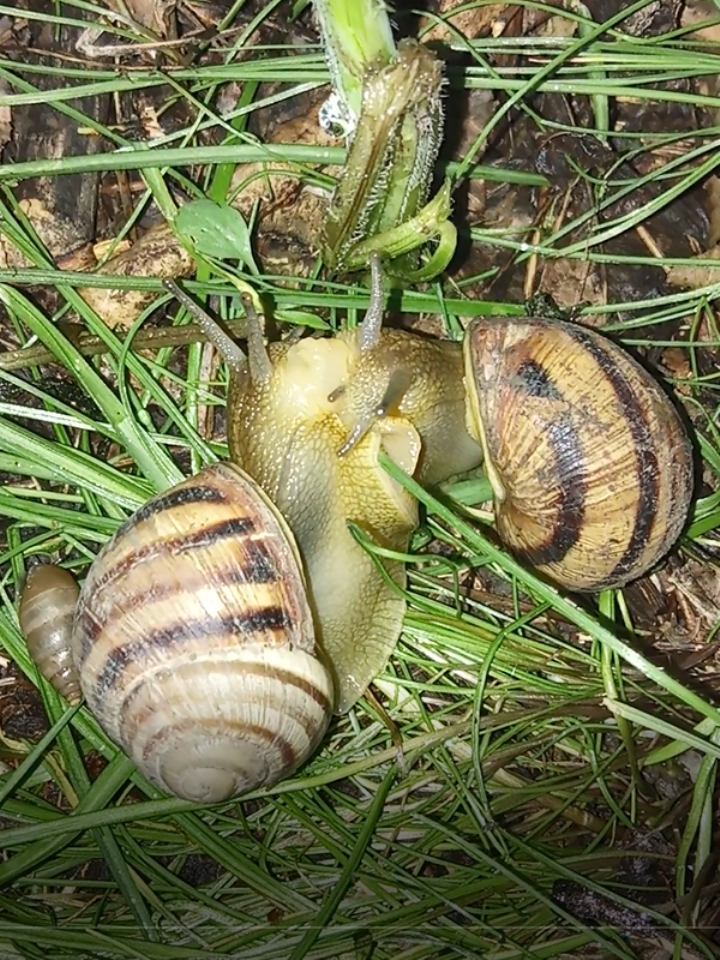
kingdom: Animalia
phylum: Mollusca
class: Gastropoda
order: Stylommatophora
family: Helicidae
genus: Helix
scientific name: Helix albescens
